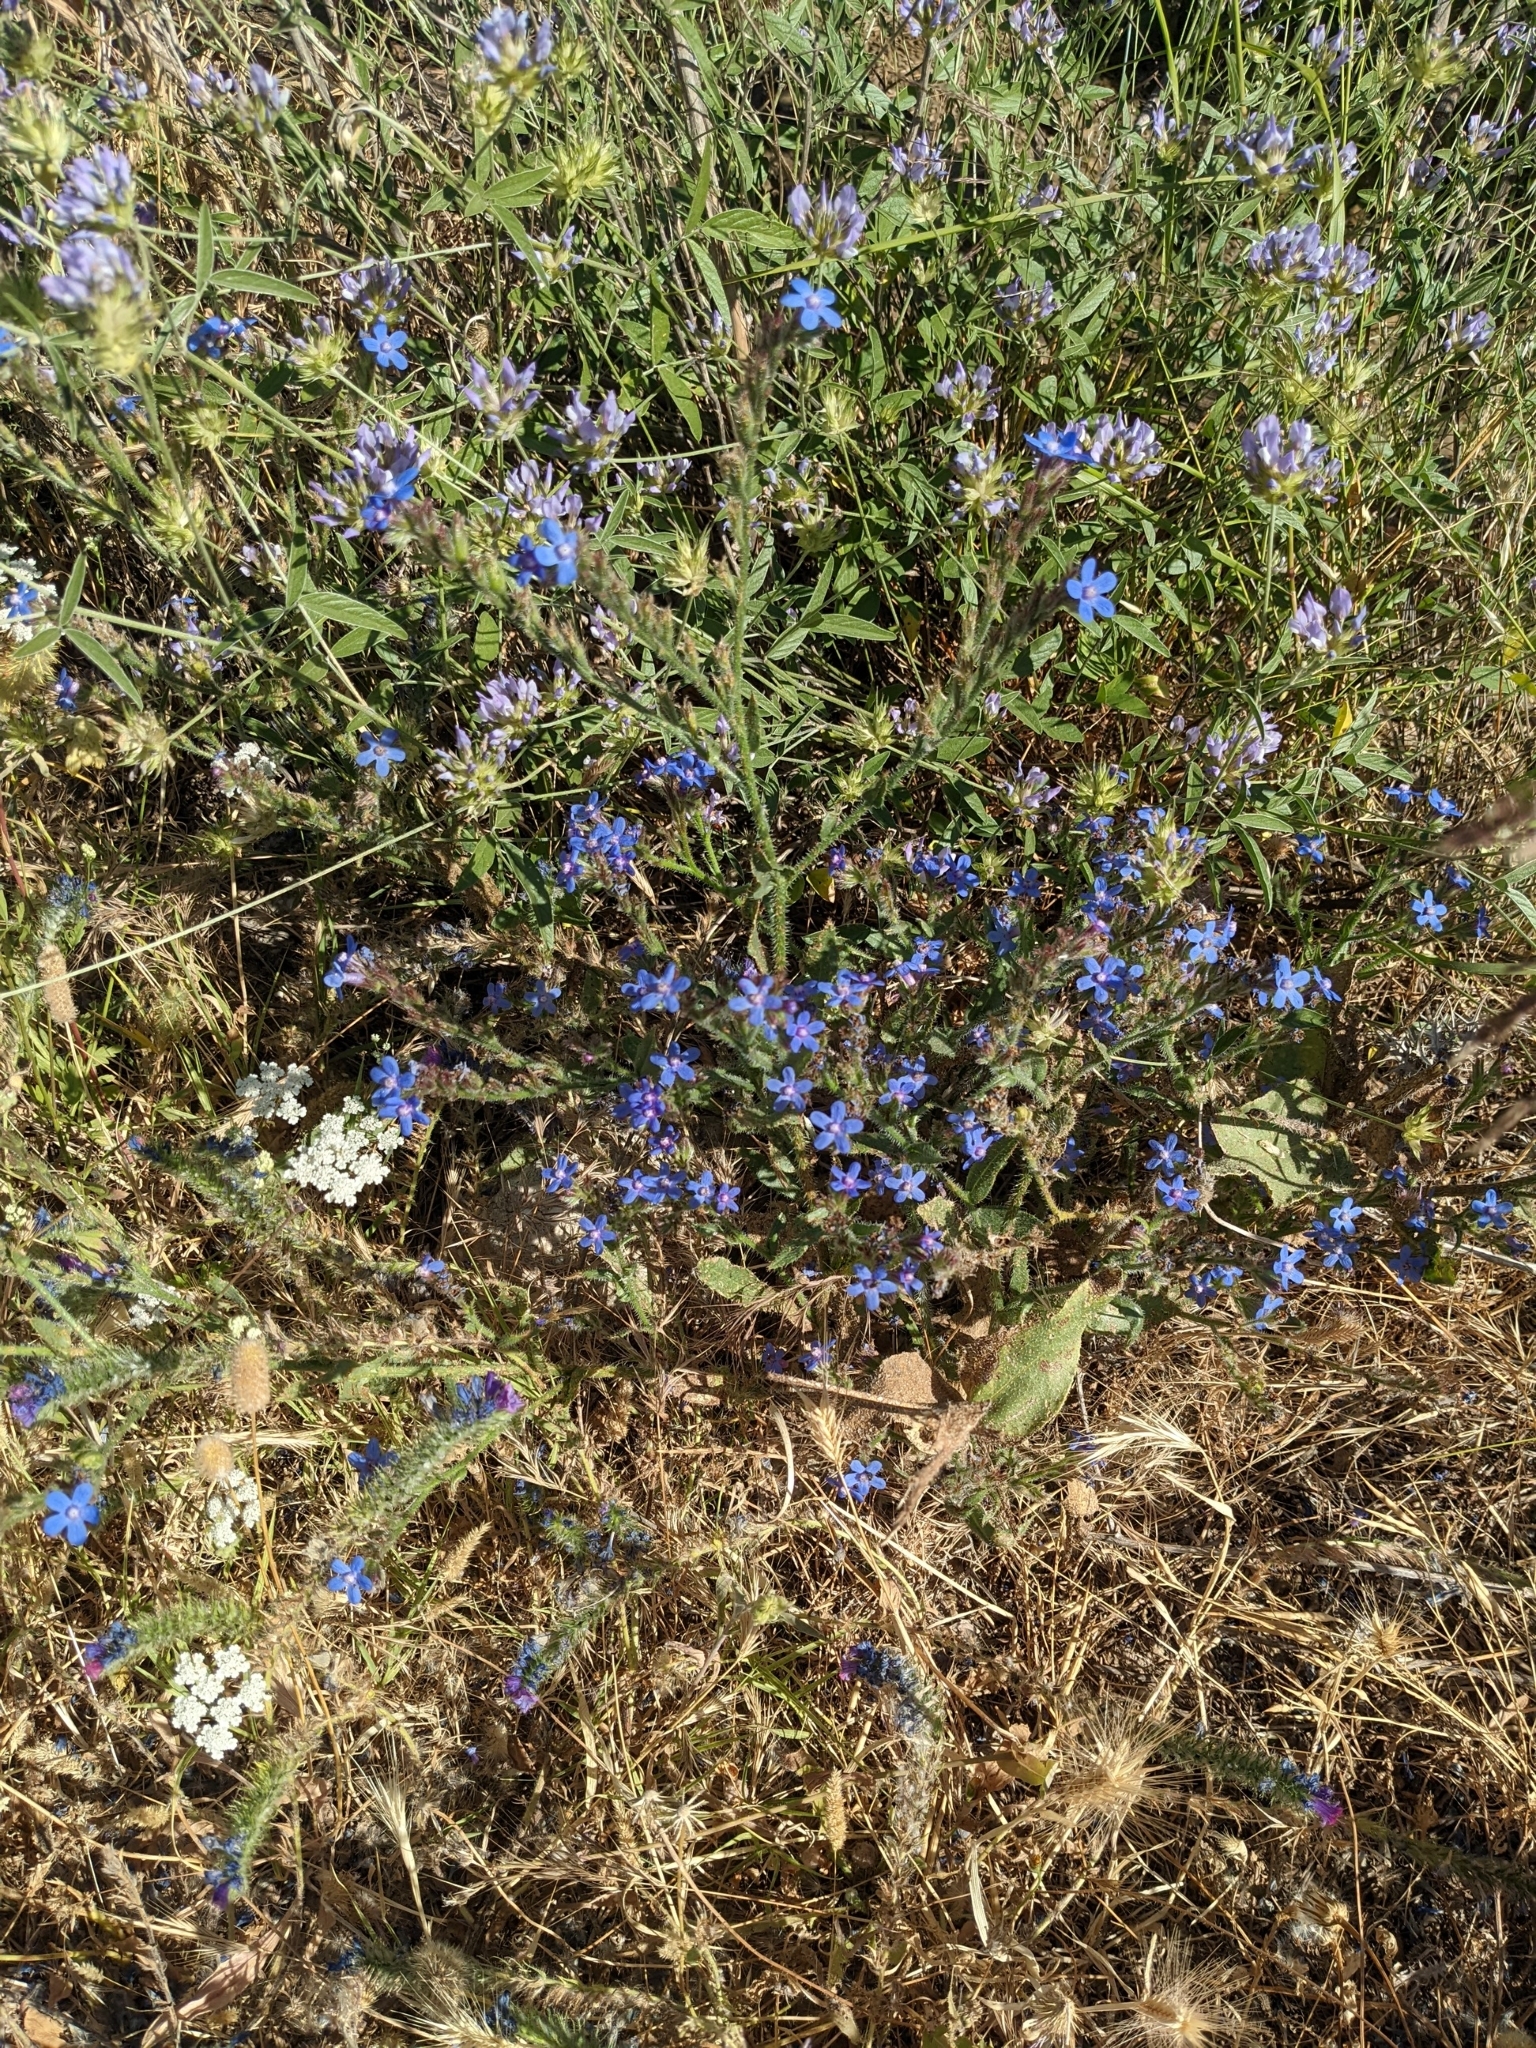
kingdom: Plantae
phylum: Tracheophyta
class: Magnoliopsida
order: Boraginales
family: Boraginaceae
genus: Anchusa
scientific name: Anchusa azurea
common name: Garden anchusa
